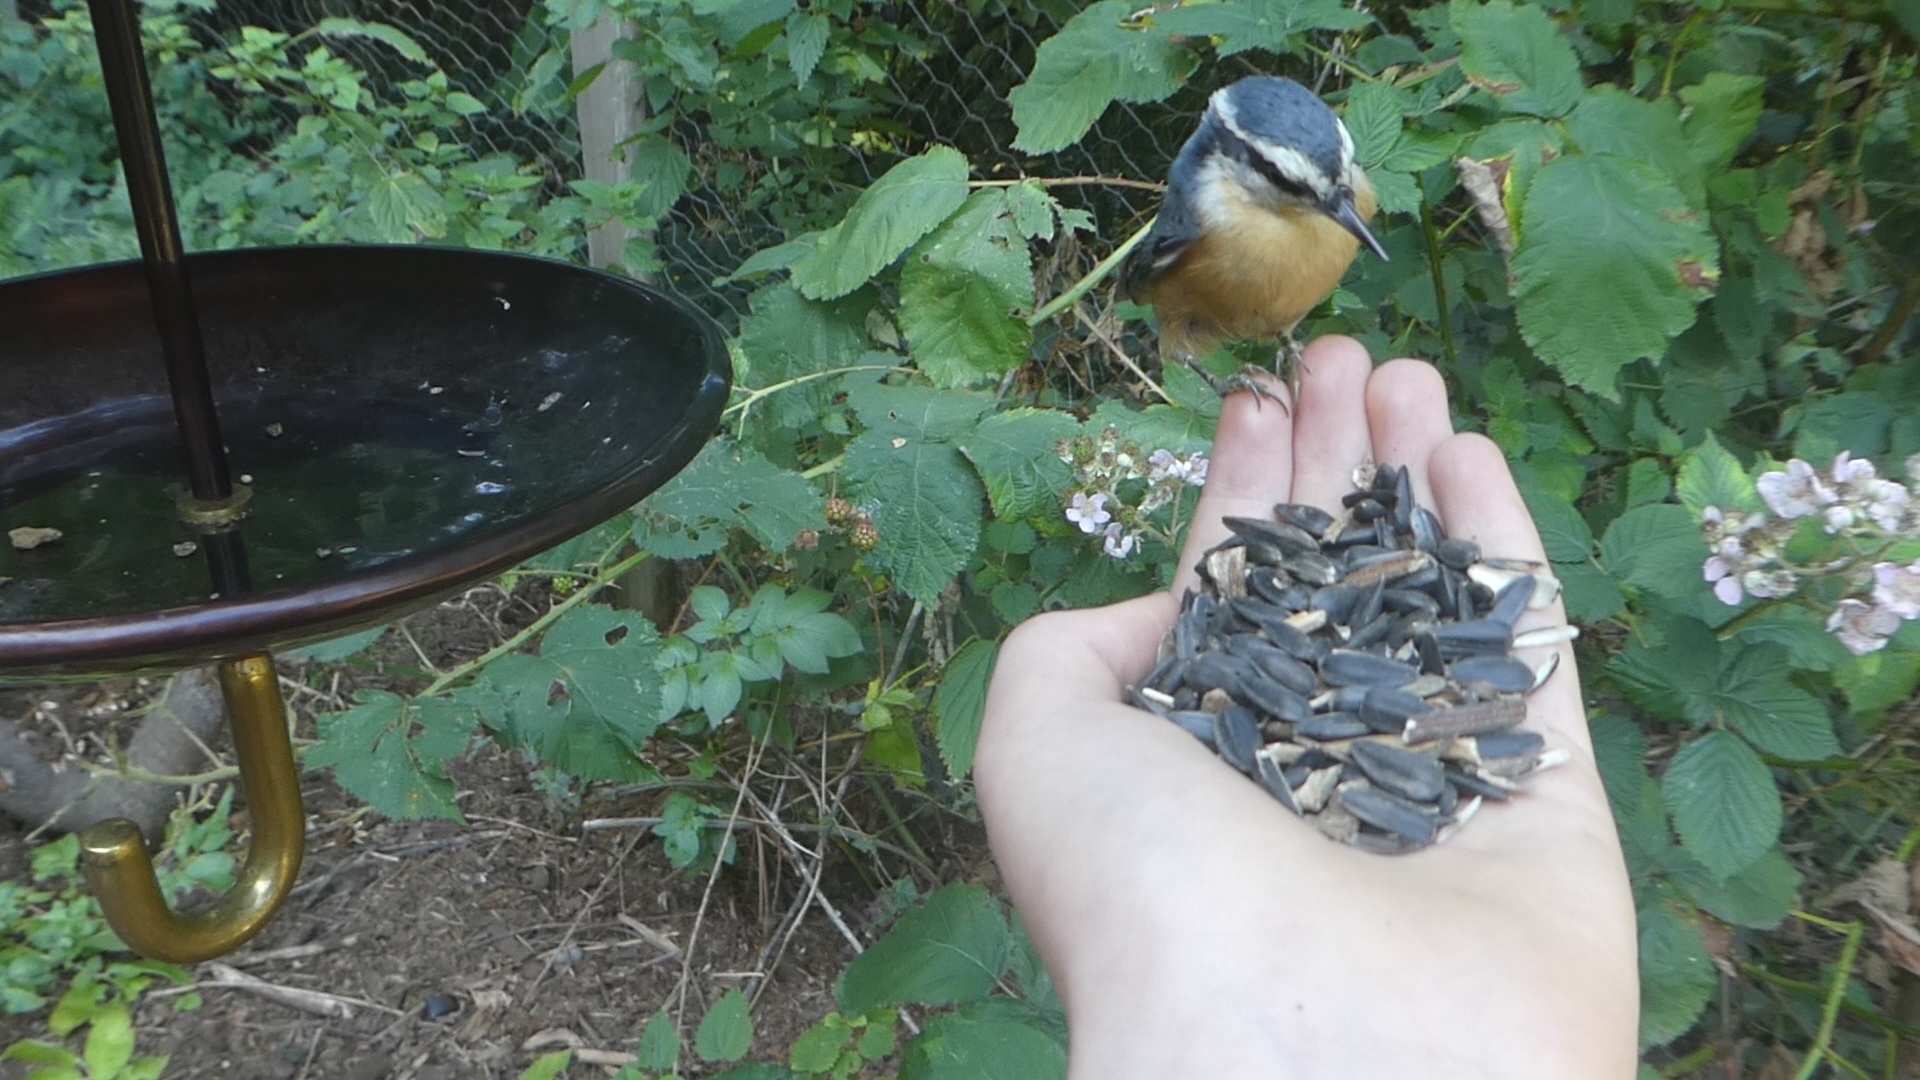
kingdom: Animalia
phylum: Chordata
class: Aves
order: Passeriformes
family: Sittidae
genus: Sitta
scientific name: Sitta canadensis
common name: Red-breasted nuthatch
